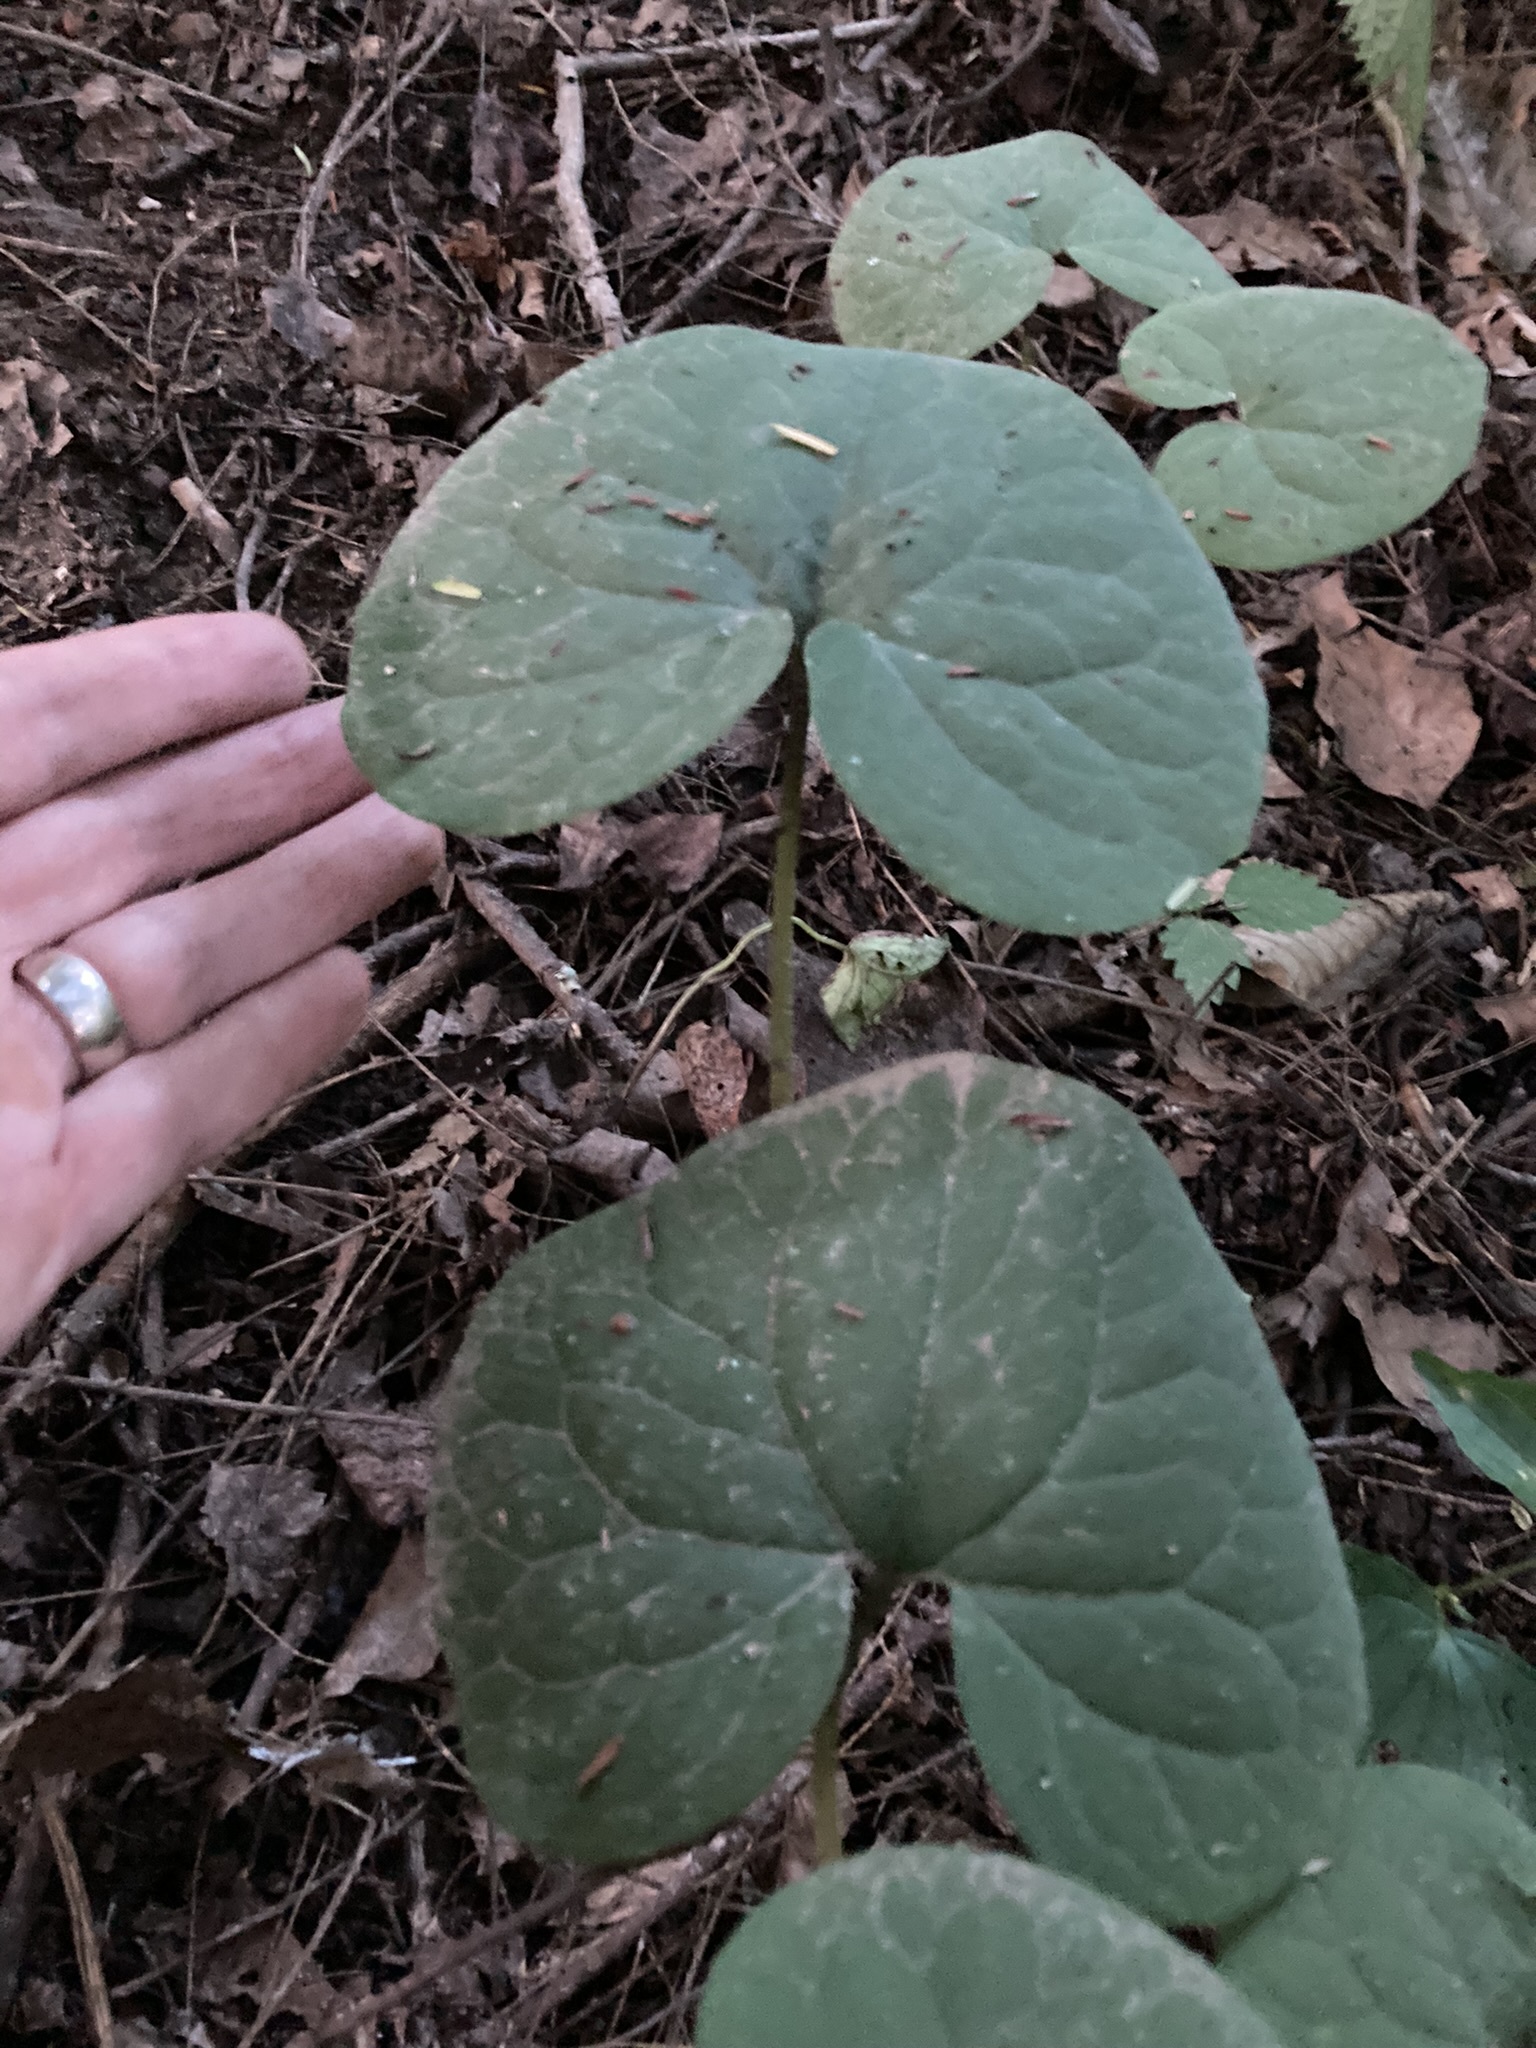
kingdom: Plantae
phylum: Tracheophyta
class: Magnoliopsida
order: Piperales
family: Aristolochiaceae
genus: Asarum
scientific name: Asarum canadense
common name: Wild ginger
